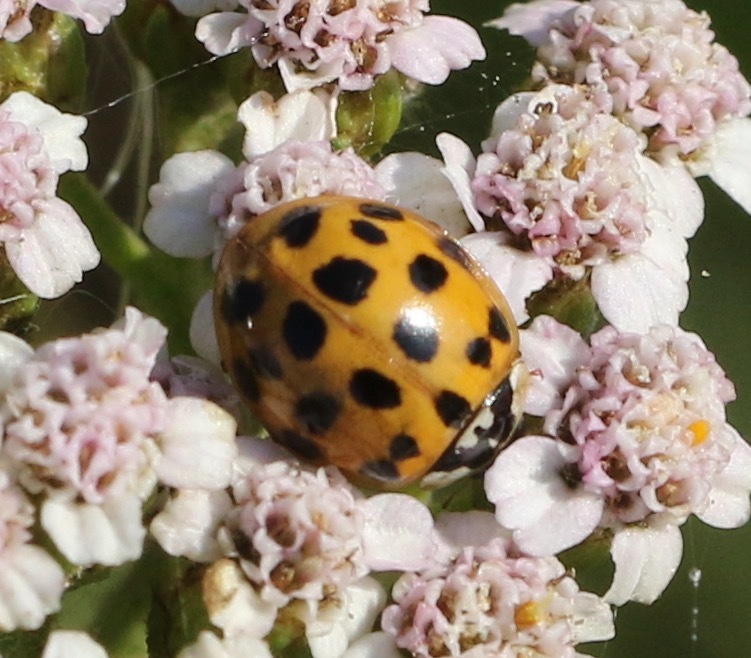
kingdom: Animalia
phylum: Arthropoda
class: Insecta
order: Coleoptera
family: Coccinellidae
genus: Harmonia
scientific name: Harmonia axyridis
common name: Harlequin ladybird
